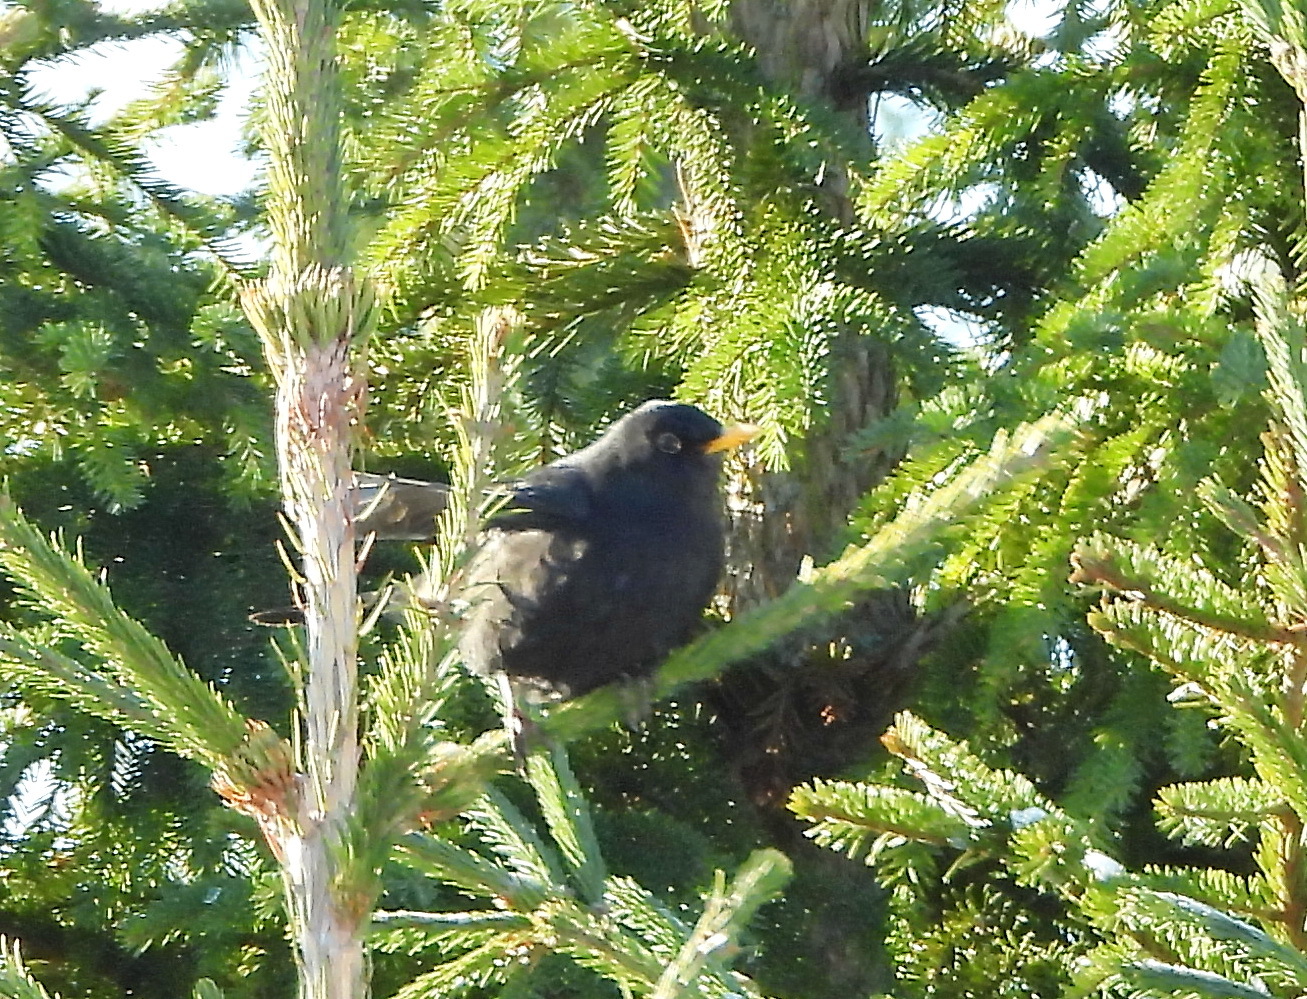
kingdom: Animalia
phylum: Chordata
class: Aves
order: Passeriformes
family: Turdidae
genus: Turdus
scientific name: Turdus merula
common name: Common blackbird
